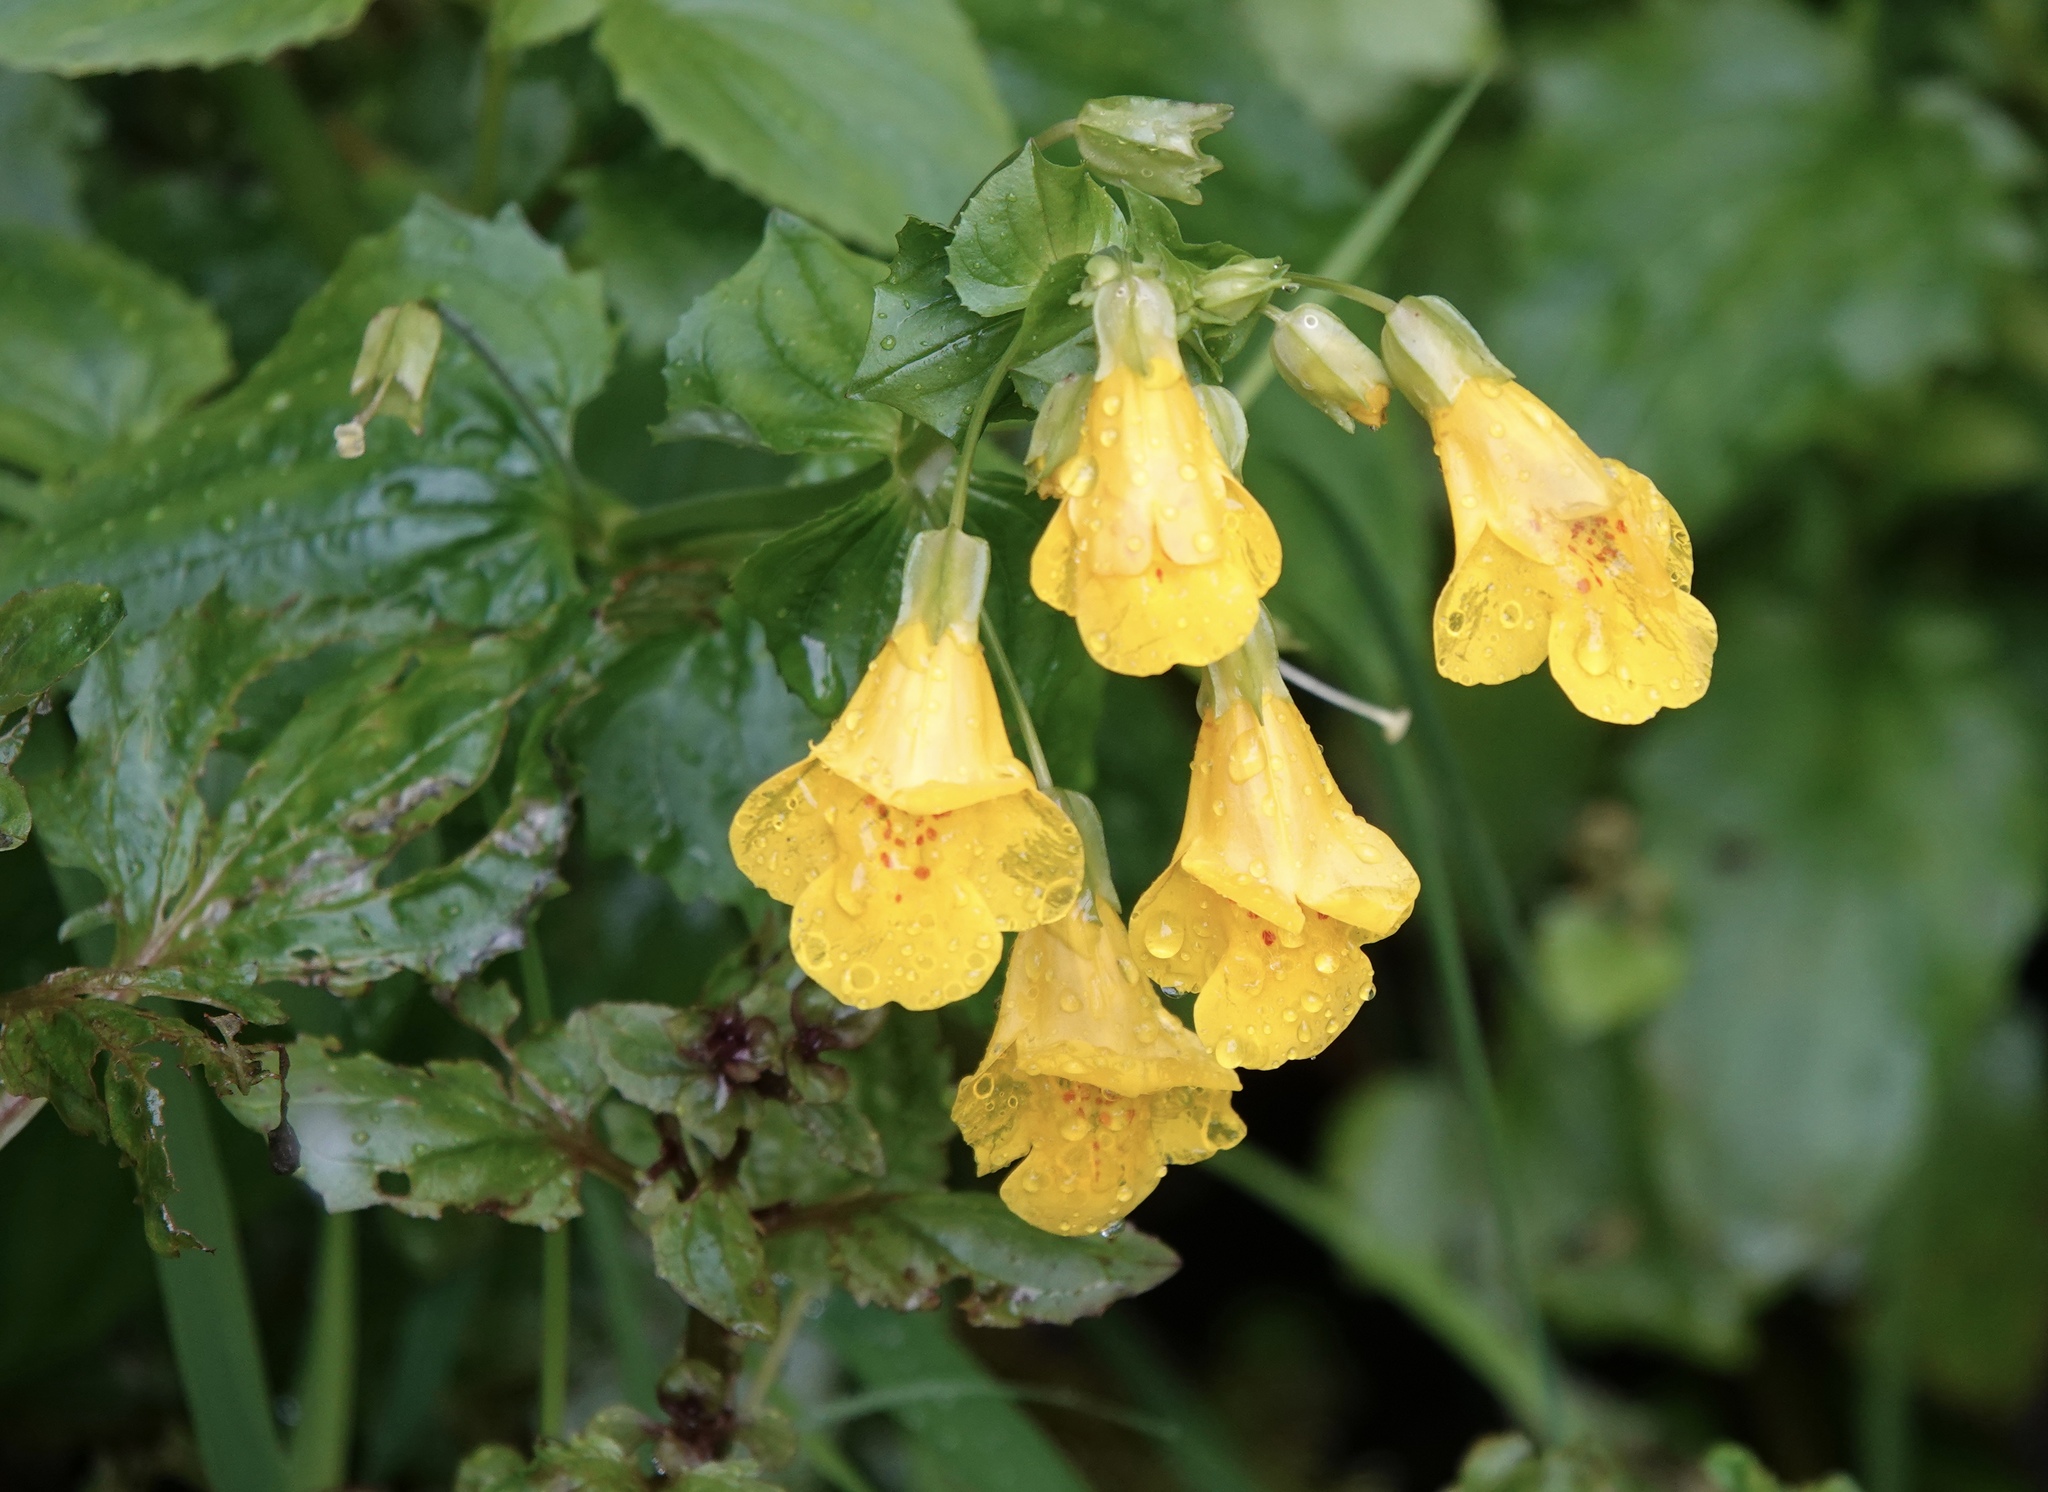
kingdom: Plantae
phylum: Tracheophyta
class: Magnoliopsida
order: Lamiales
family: Phrymaceae
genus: Erythranthe
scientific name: Erythranthe decora
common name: Mannered monkeyflower
